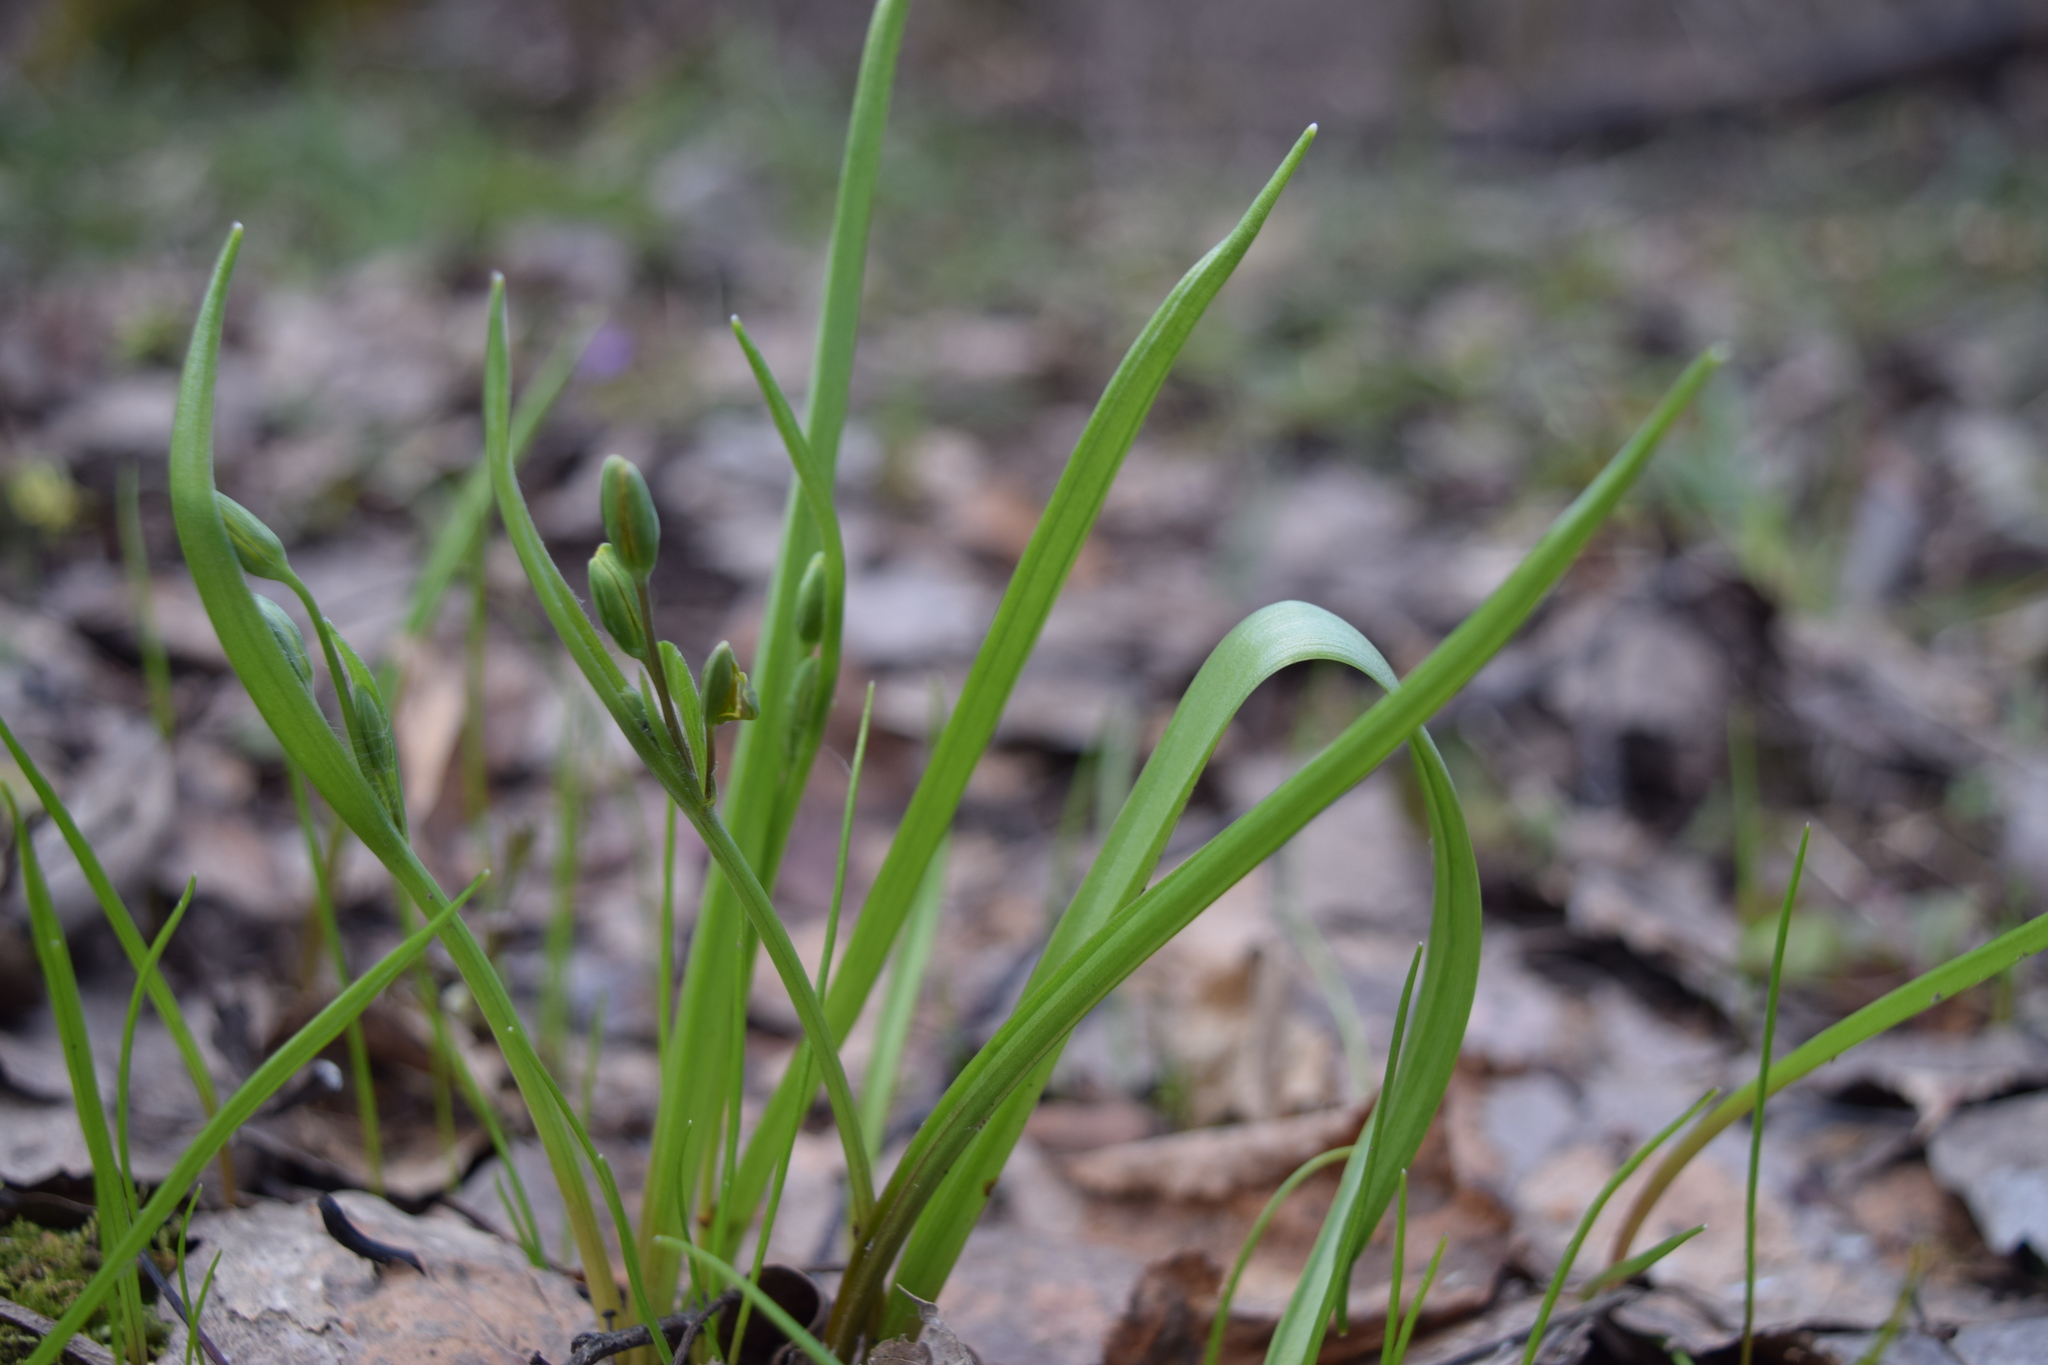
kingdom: Plantae
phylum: Tracheophyta
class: Liliopsida
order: Liliales
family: Liliaceae
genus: Gagea
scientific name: Gagea lutea
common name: Yellow star-of-bethlehem
